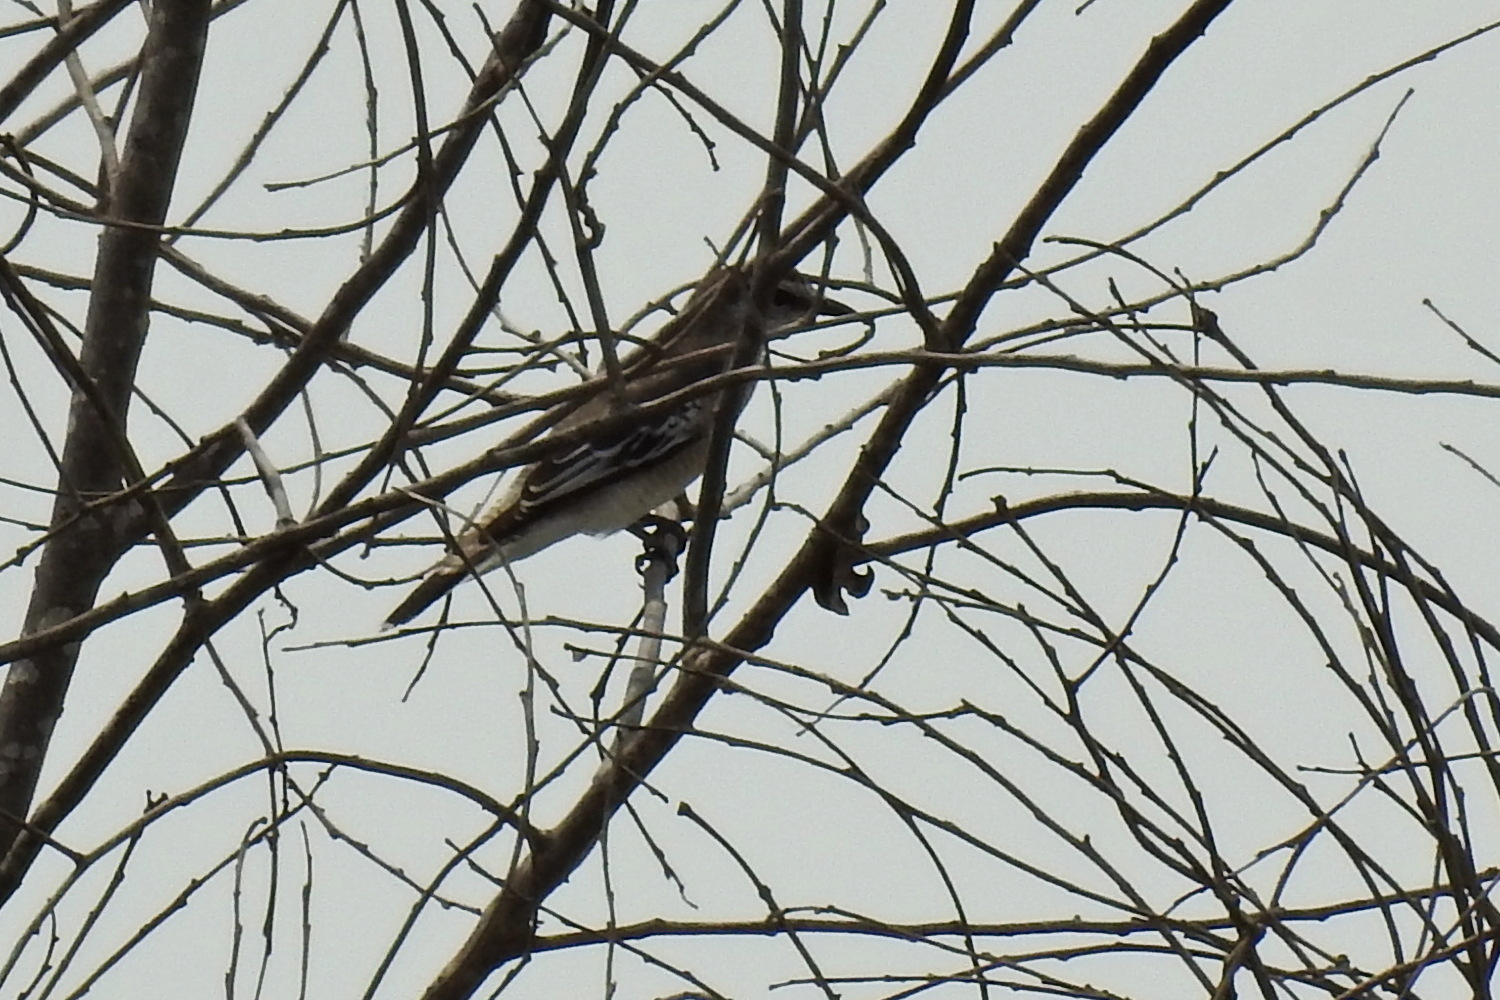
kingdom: Animalia
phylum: Chordata
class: Aves
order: Passeriformes
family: Campephagidae
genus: Lalage
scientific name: Lalage nigra
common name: Pied triller
